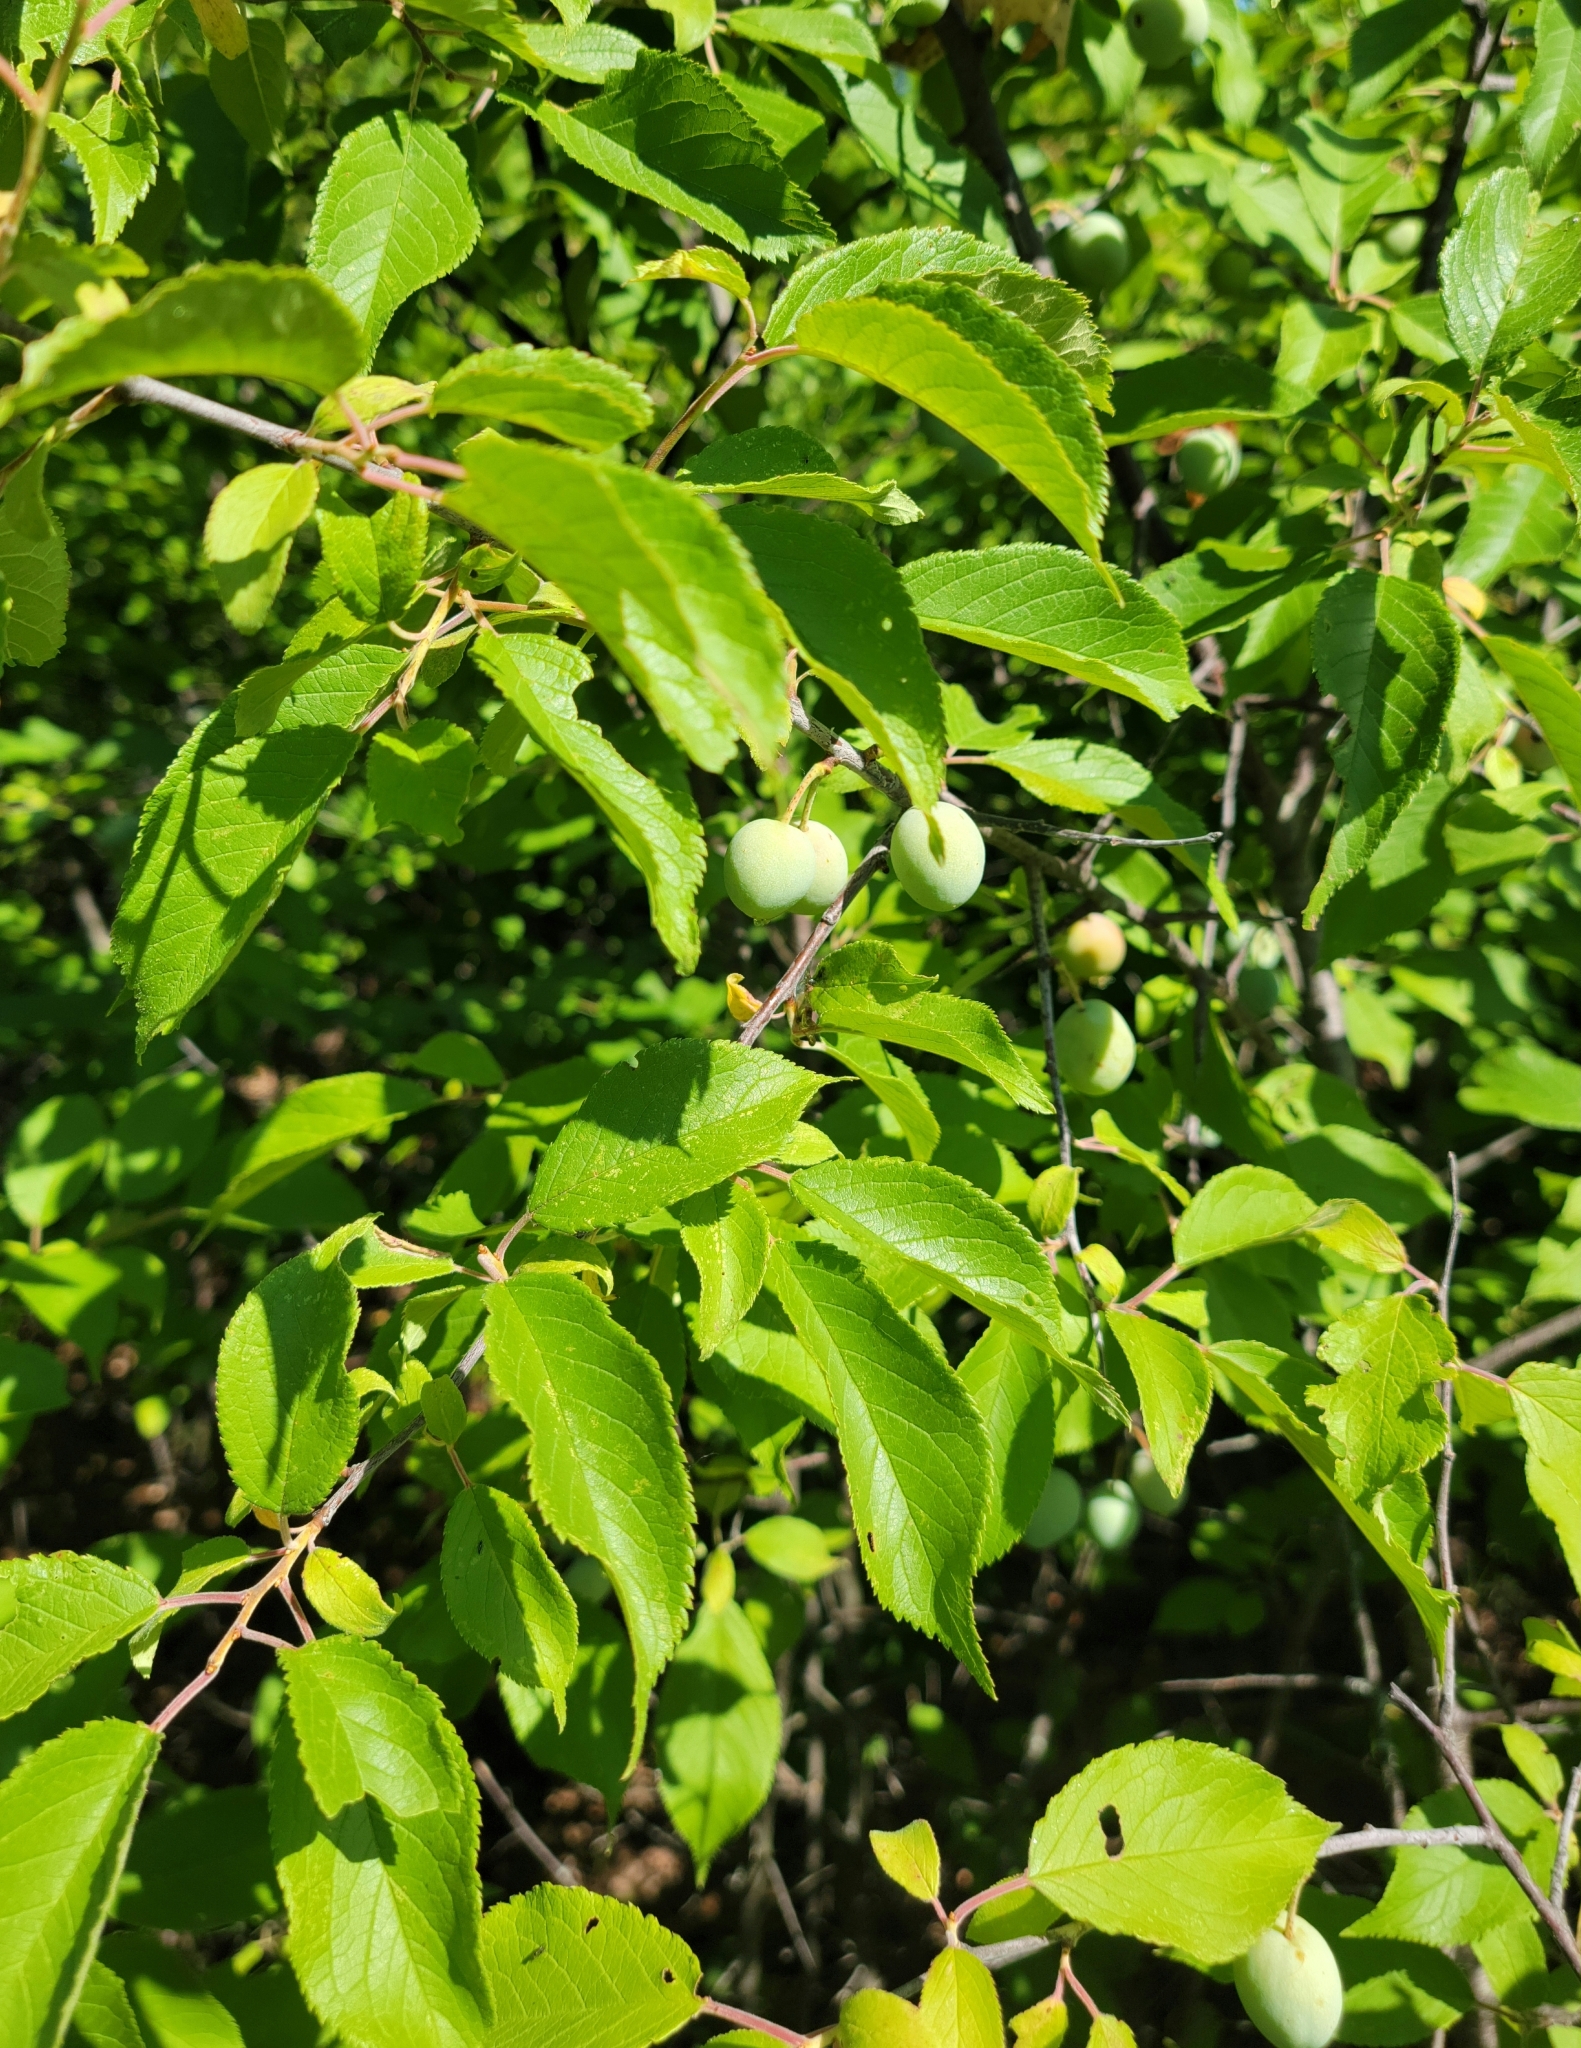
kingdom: Plantae
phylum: Tracheophyta
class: Magnoliopsida
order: Rosales
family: Rosaceae
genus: Prunus
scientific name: Prunus americana
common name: American plum
